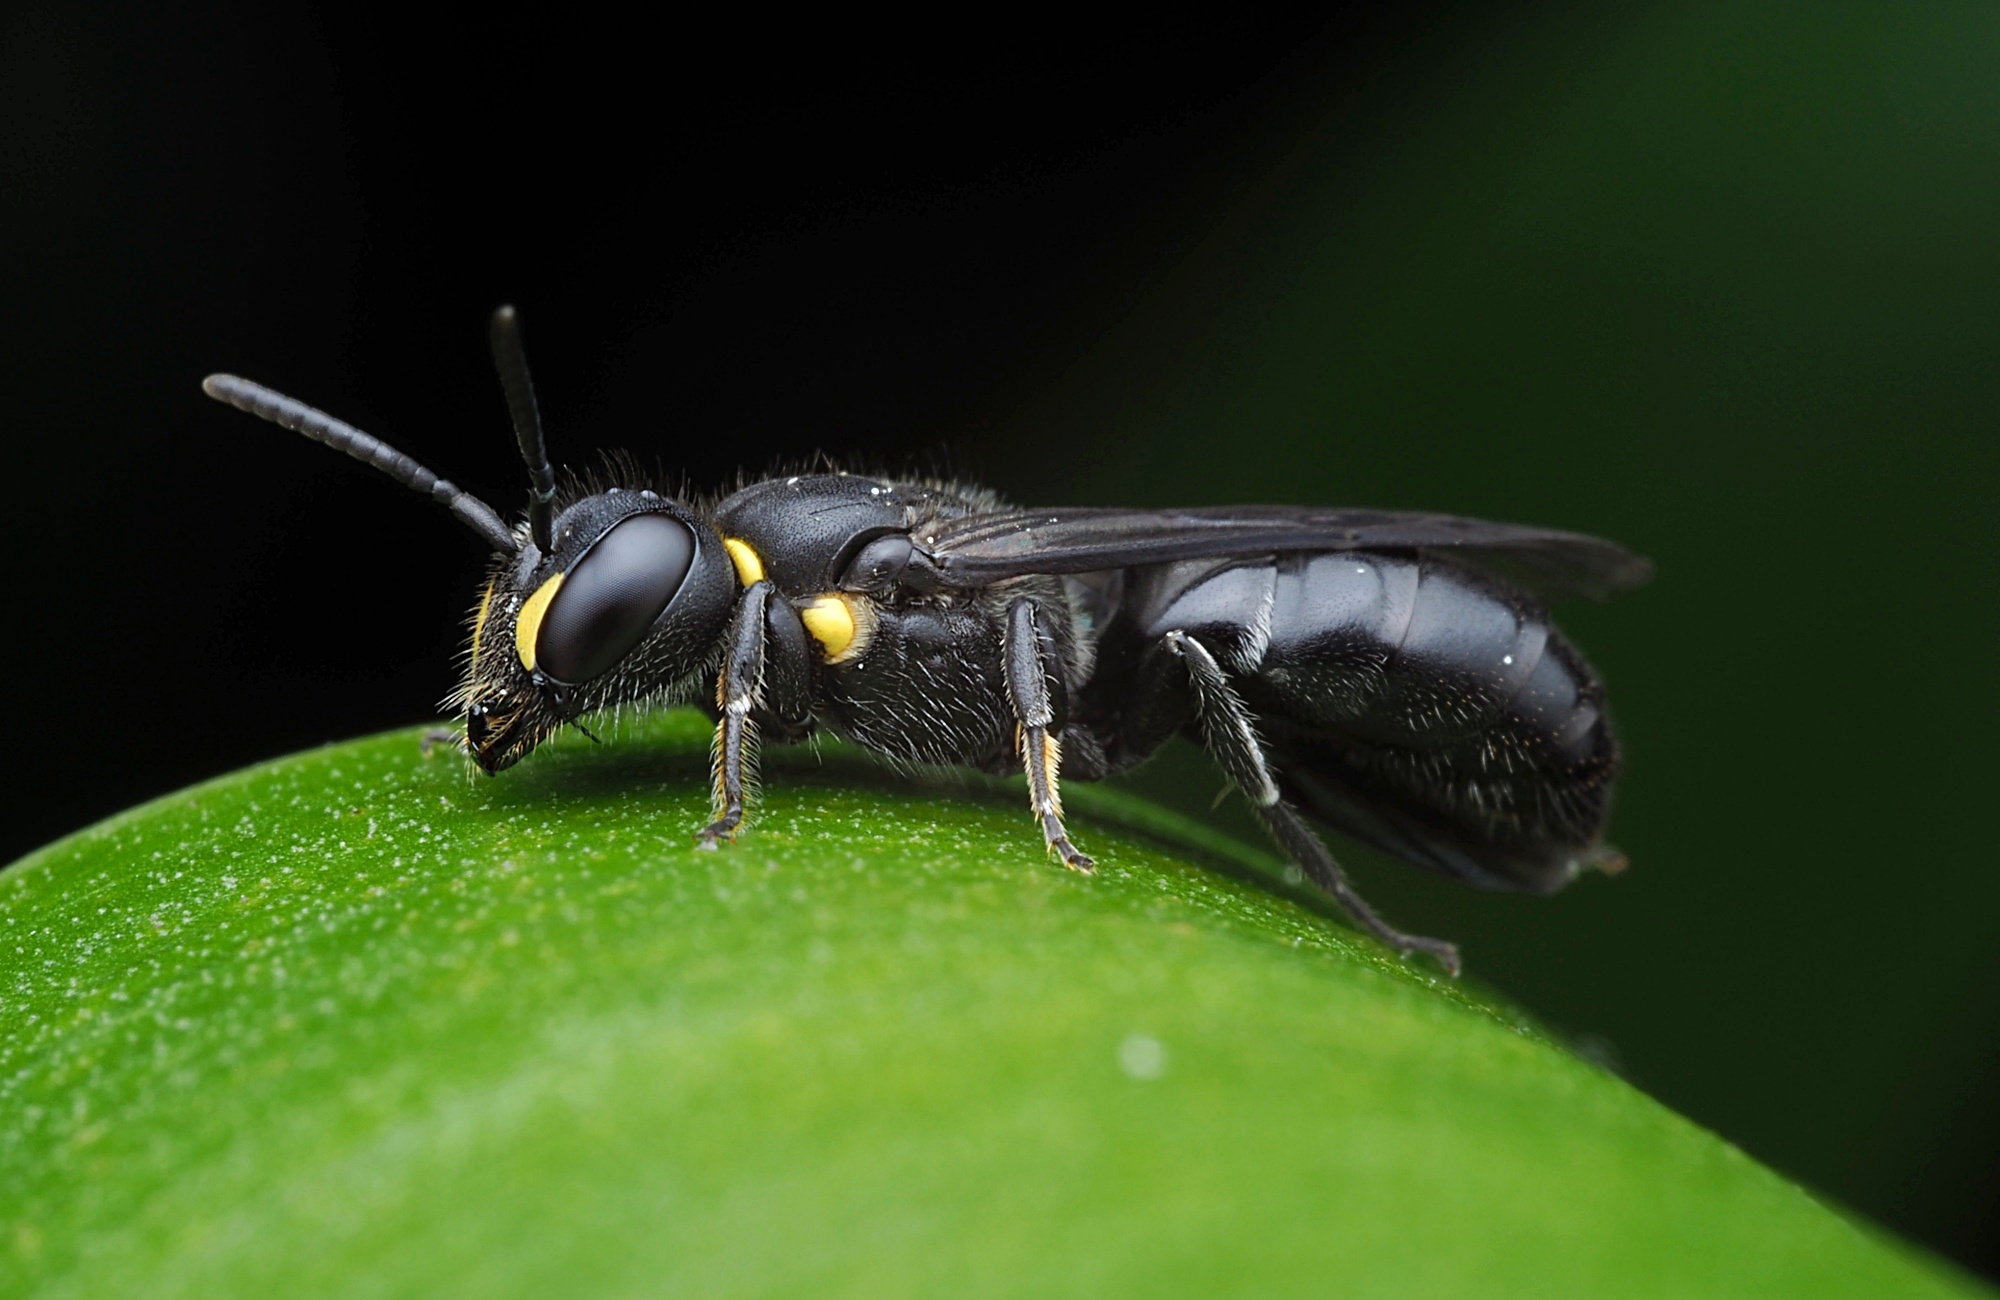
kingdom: Animalia
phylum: Arthropoda
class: Insecta
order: Hymenoptera
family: Colletidae
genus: Hylaeus
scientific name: Hylaeus relegatus
